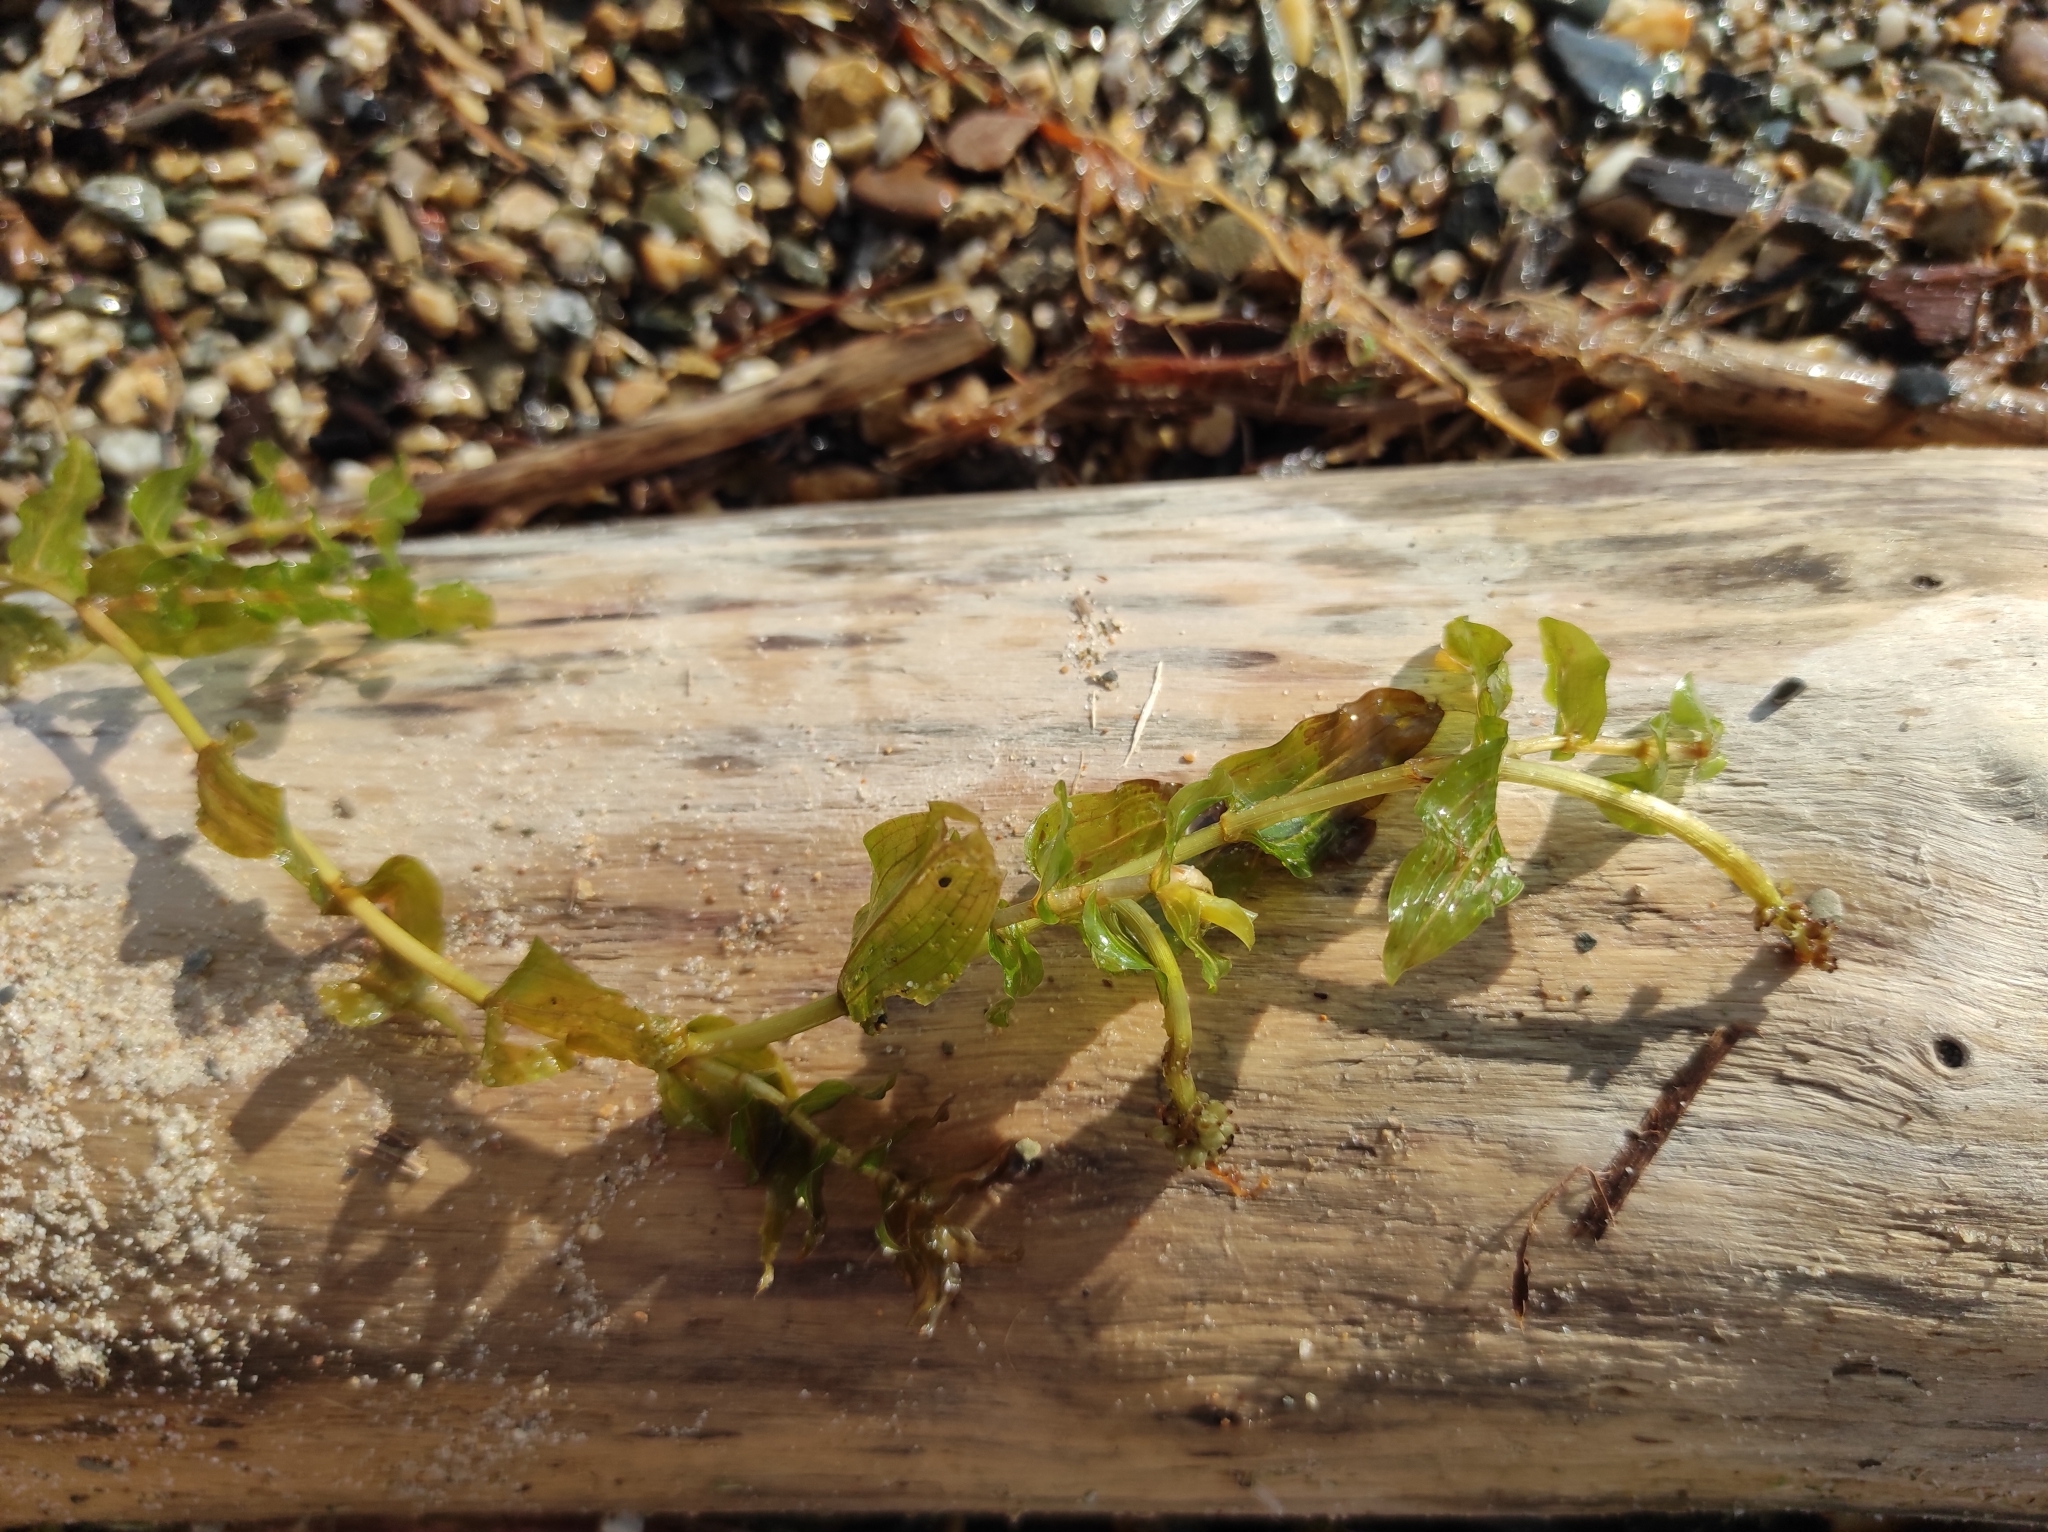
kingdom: Plantae
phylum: Tracheophyta
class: Liliopsida
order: Alismatales
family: Potamogetonaceae
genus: Potamogeton
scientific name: Potamogeton perfoliatus
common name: Perfoliate pondweed
